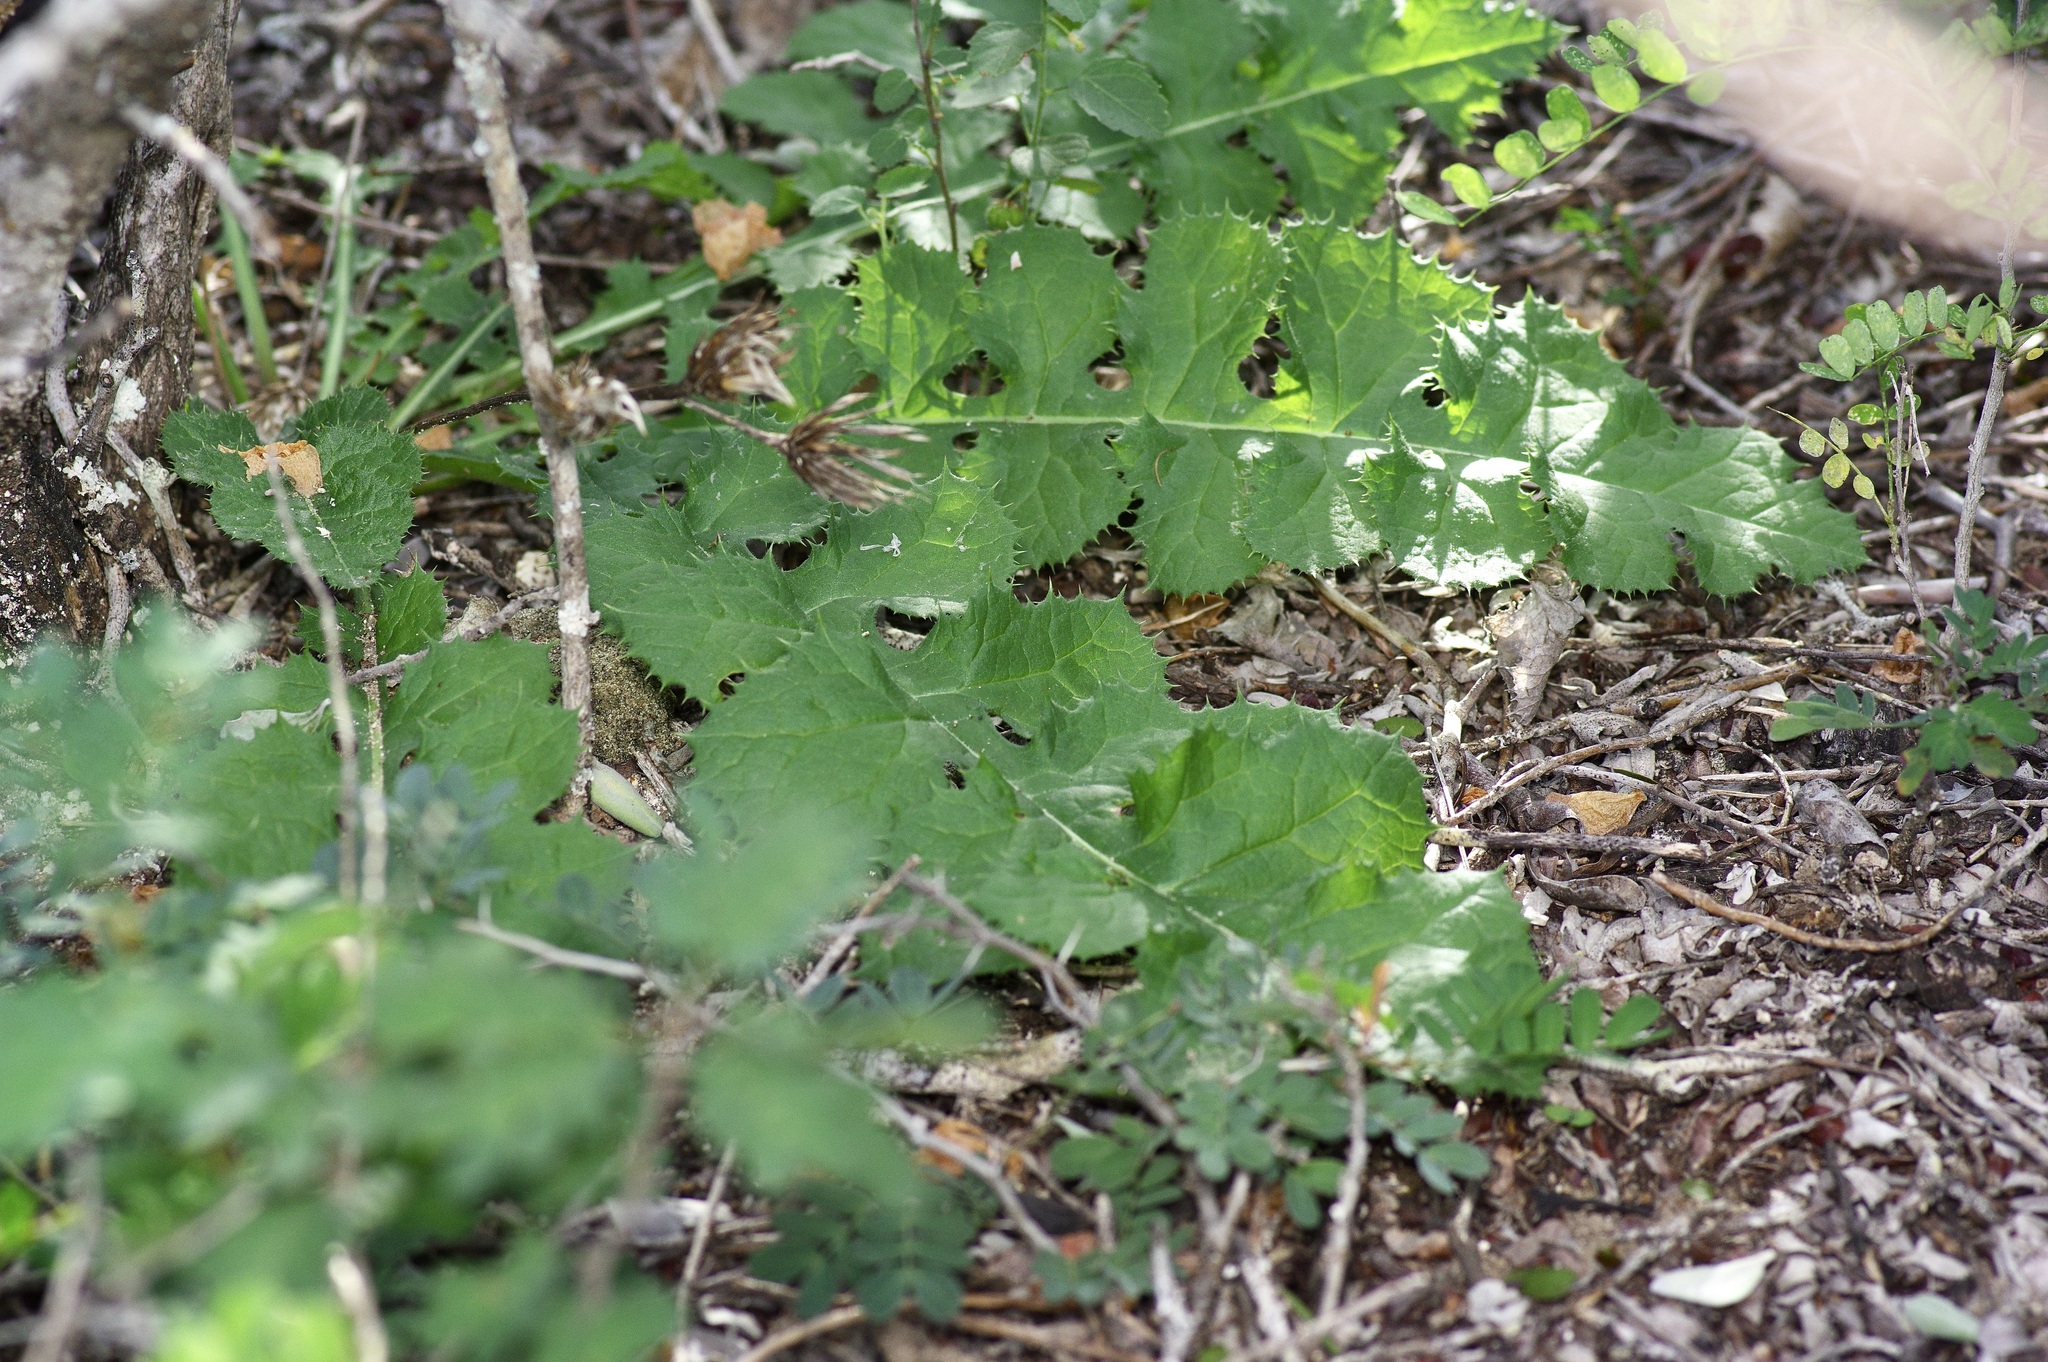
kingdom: Plantae
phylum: Tracheophyta
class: Magnoliopsida
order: Asterales
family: Asteraceae
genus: Acourtia
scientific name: Acourtia runcinata
